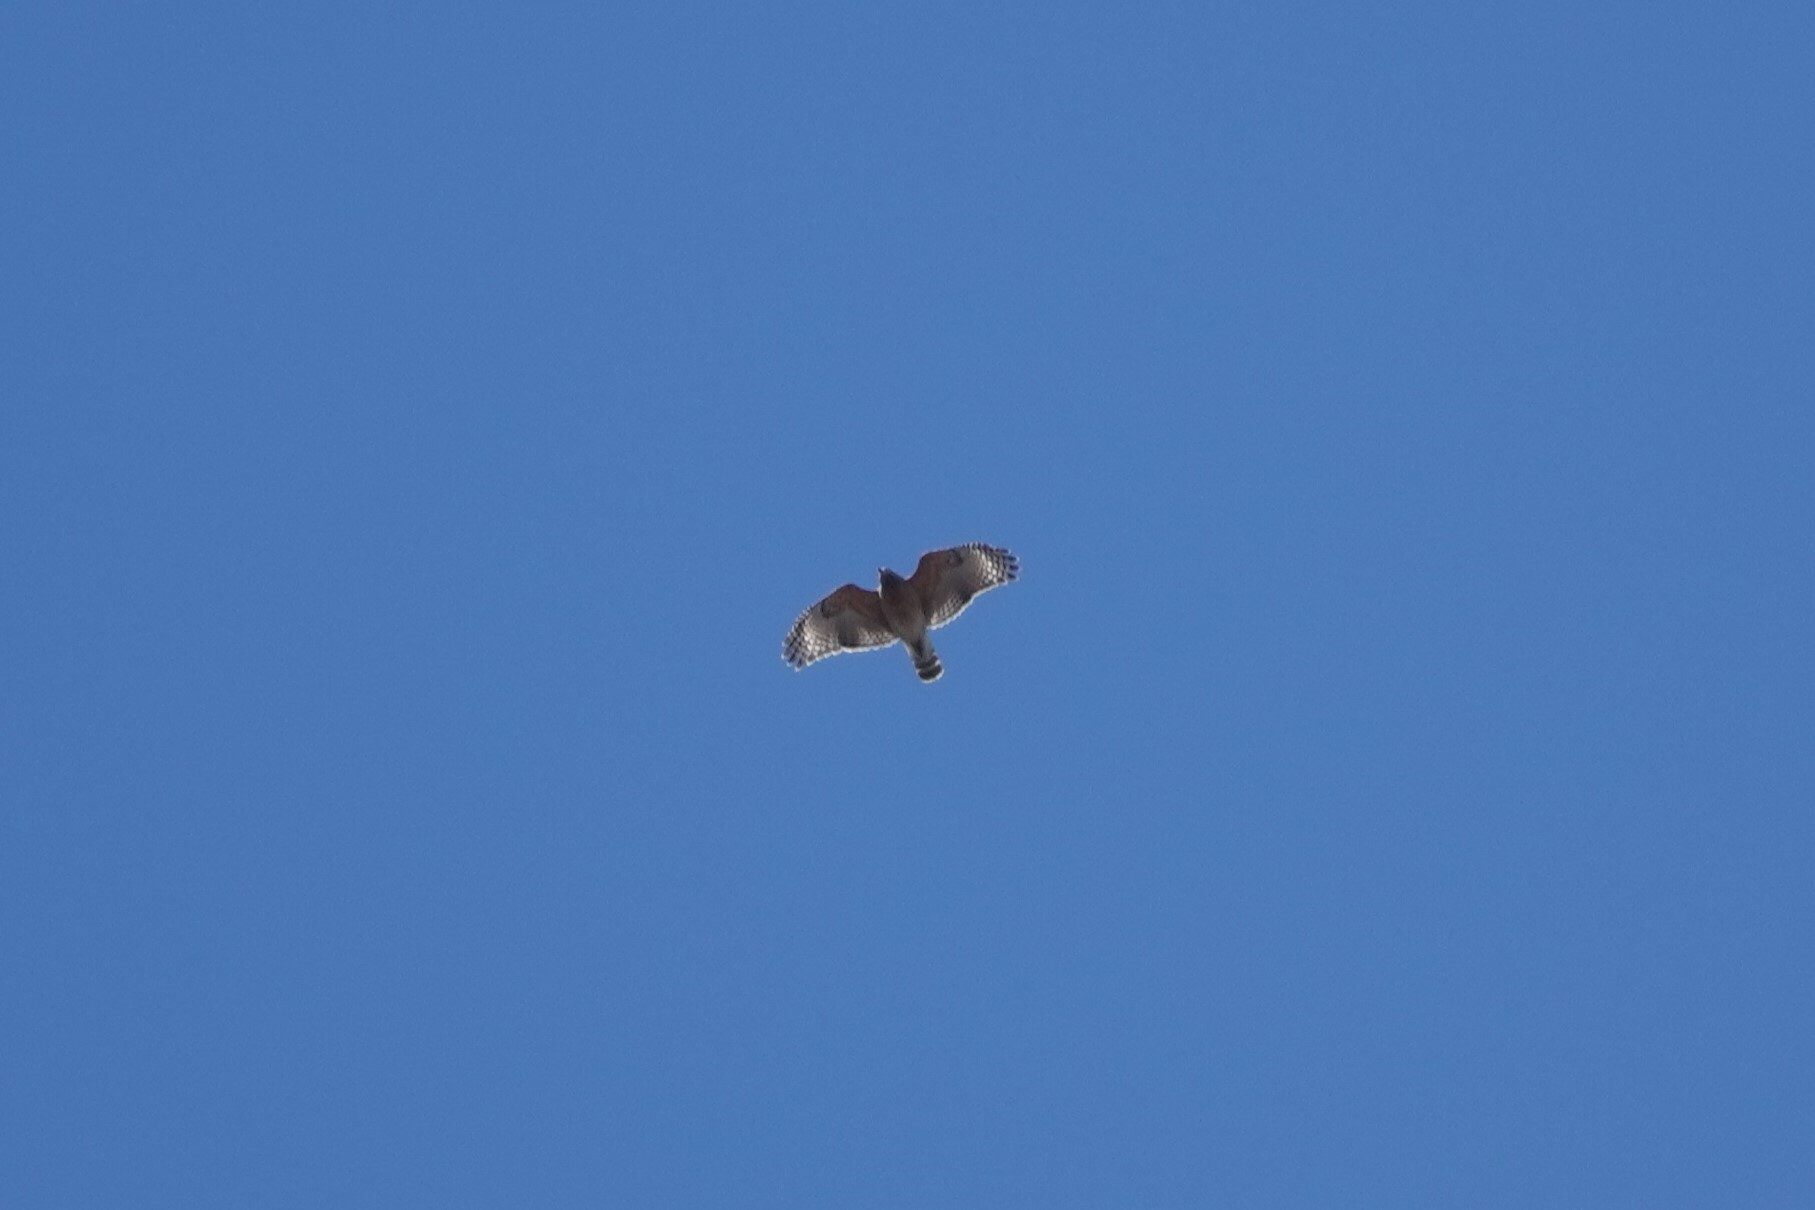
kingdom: Animalia
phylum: Chordata
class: Aves
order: Accipitriformes
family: Accipitridae
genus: Buteo
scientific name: Buteo lineatus
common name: Red-shouldered hawk
